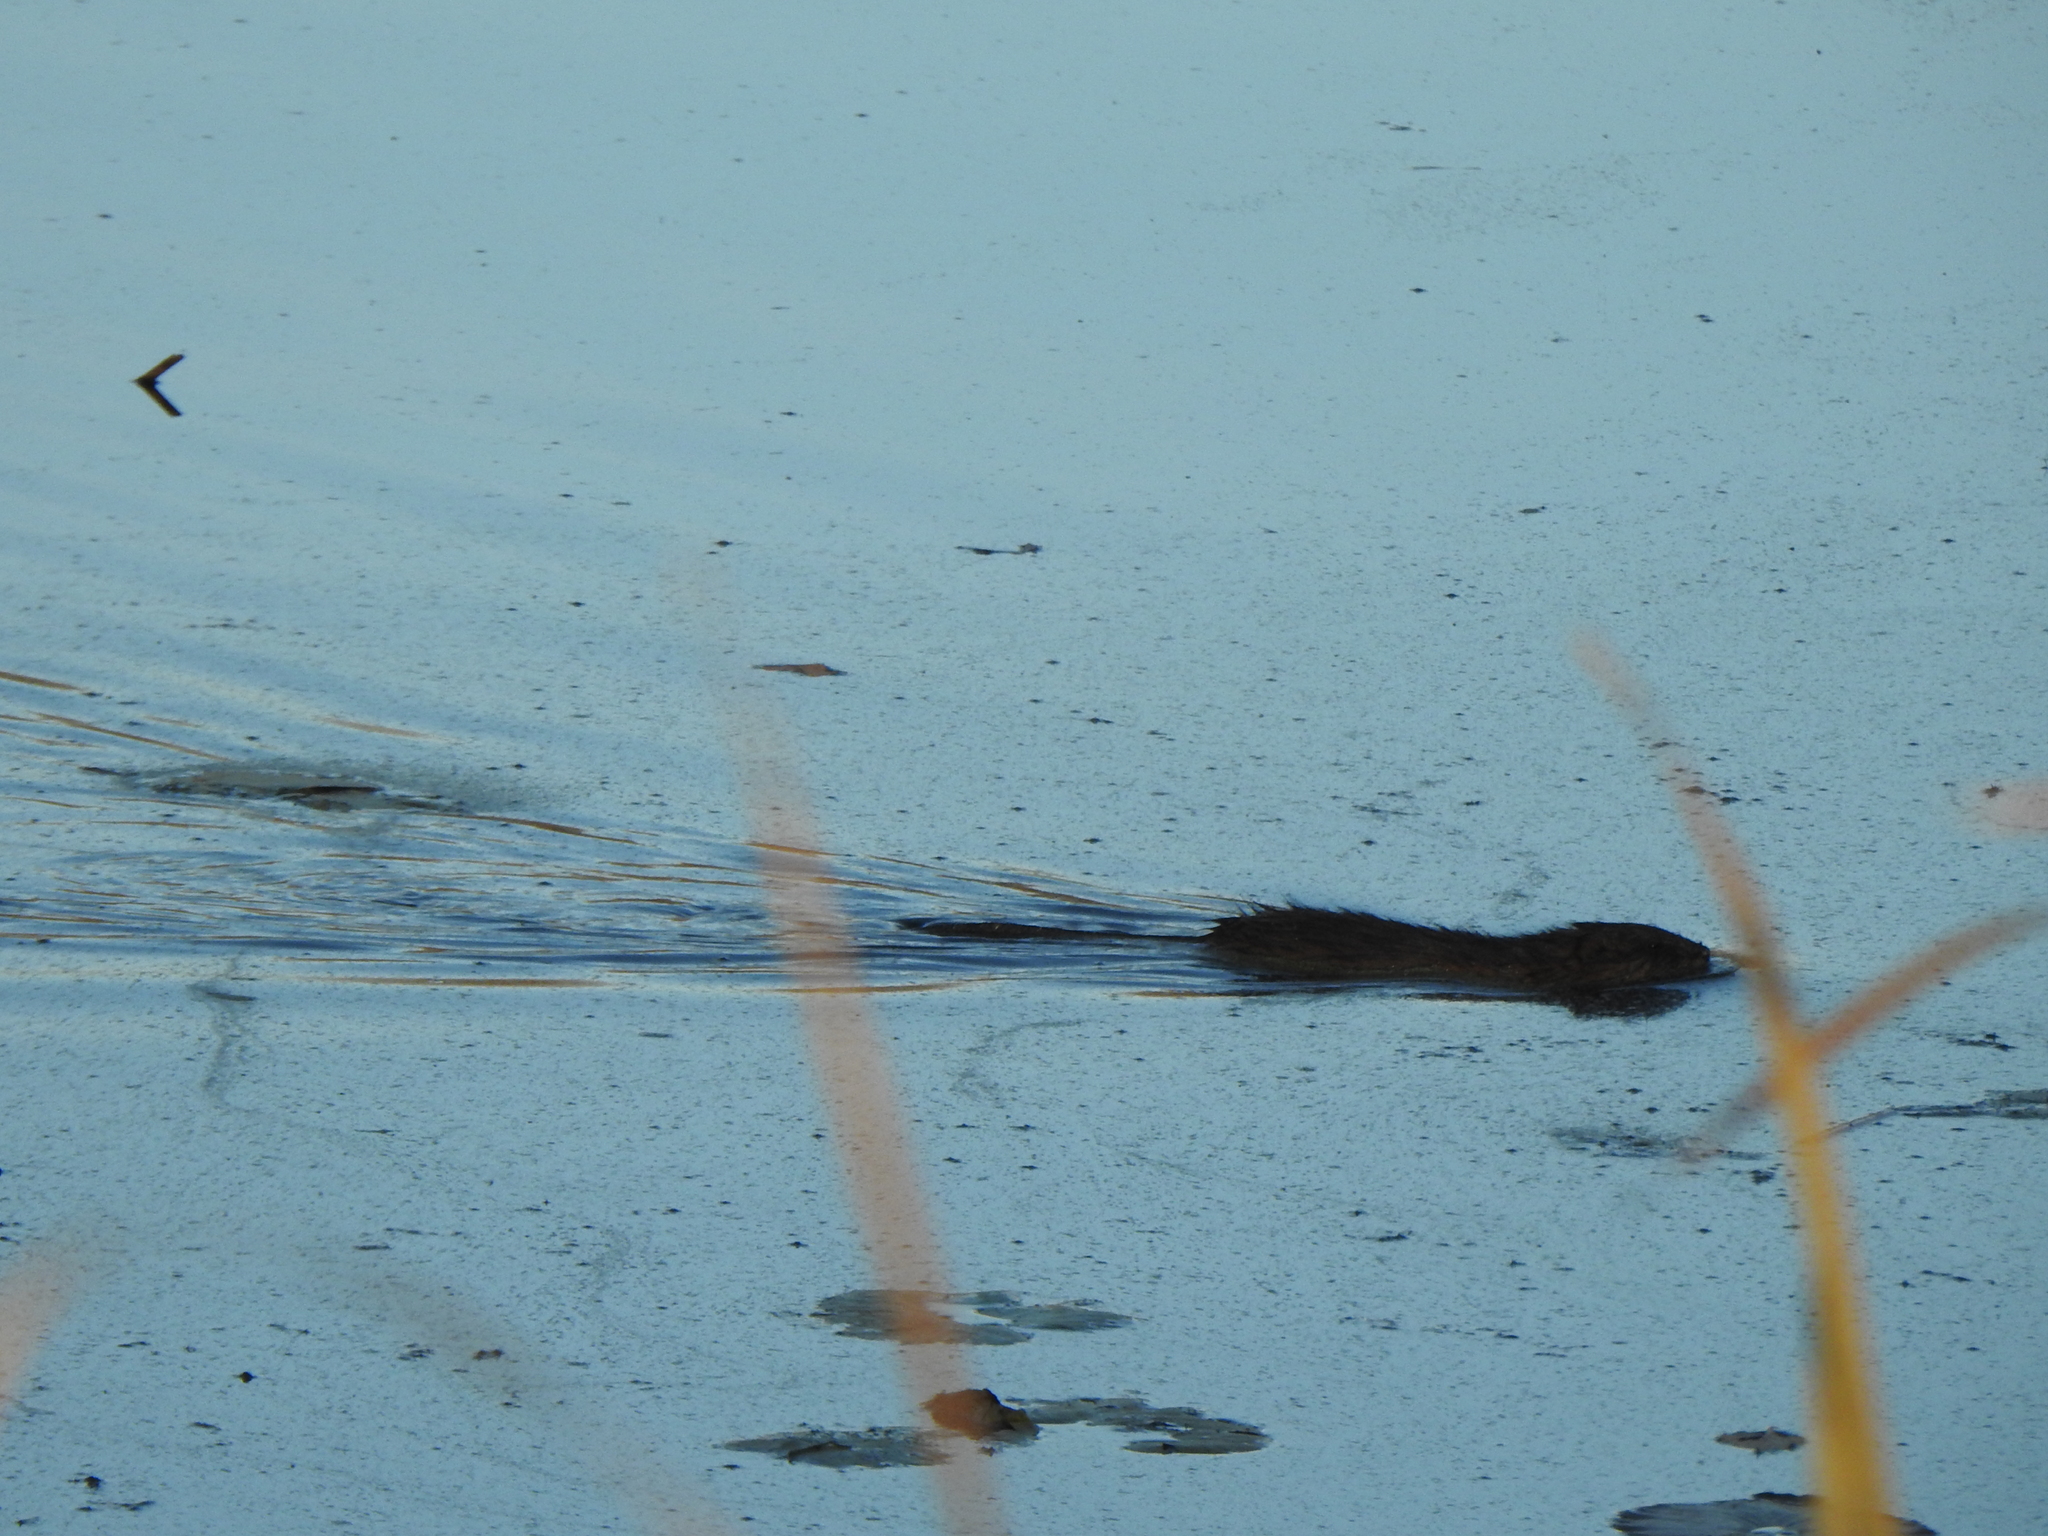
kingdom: Animalia
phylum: Chordata
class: Mammalia
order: Rodentia
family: Cricetidae
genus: Ondatra
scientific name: Ondatra zibethicus
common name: Muskrat
